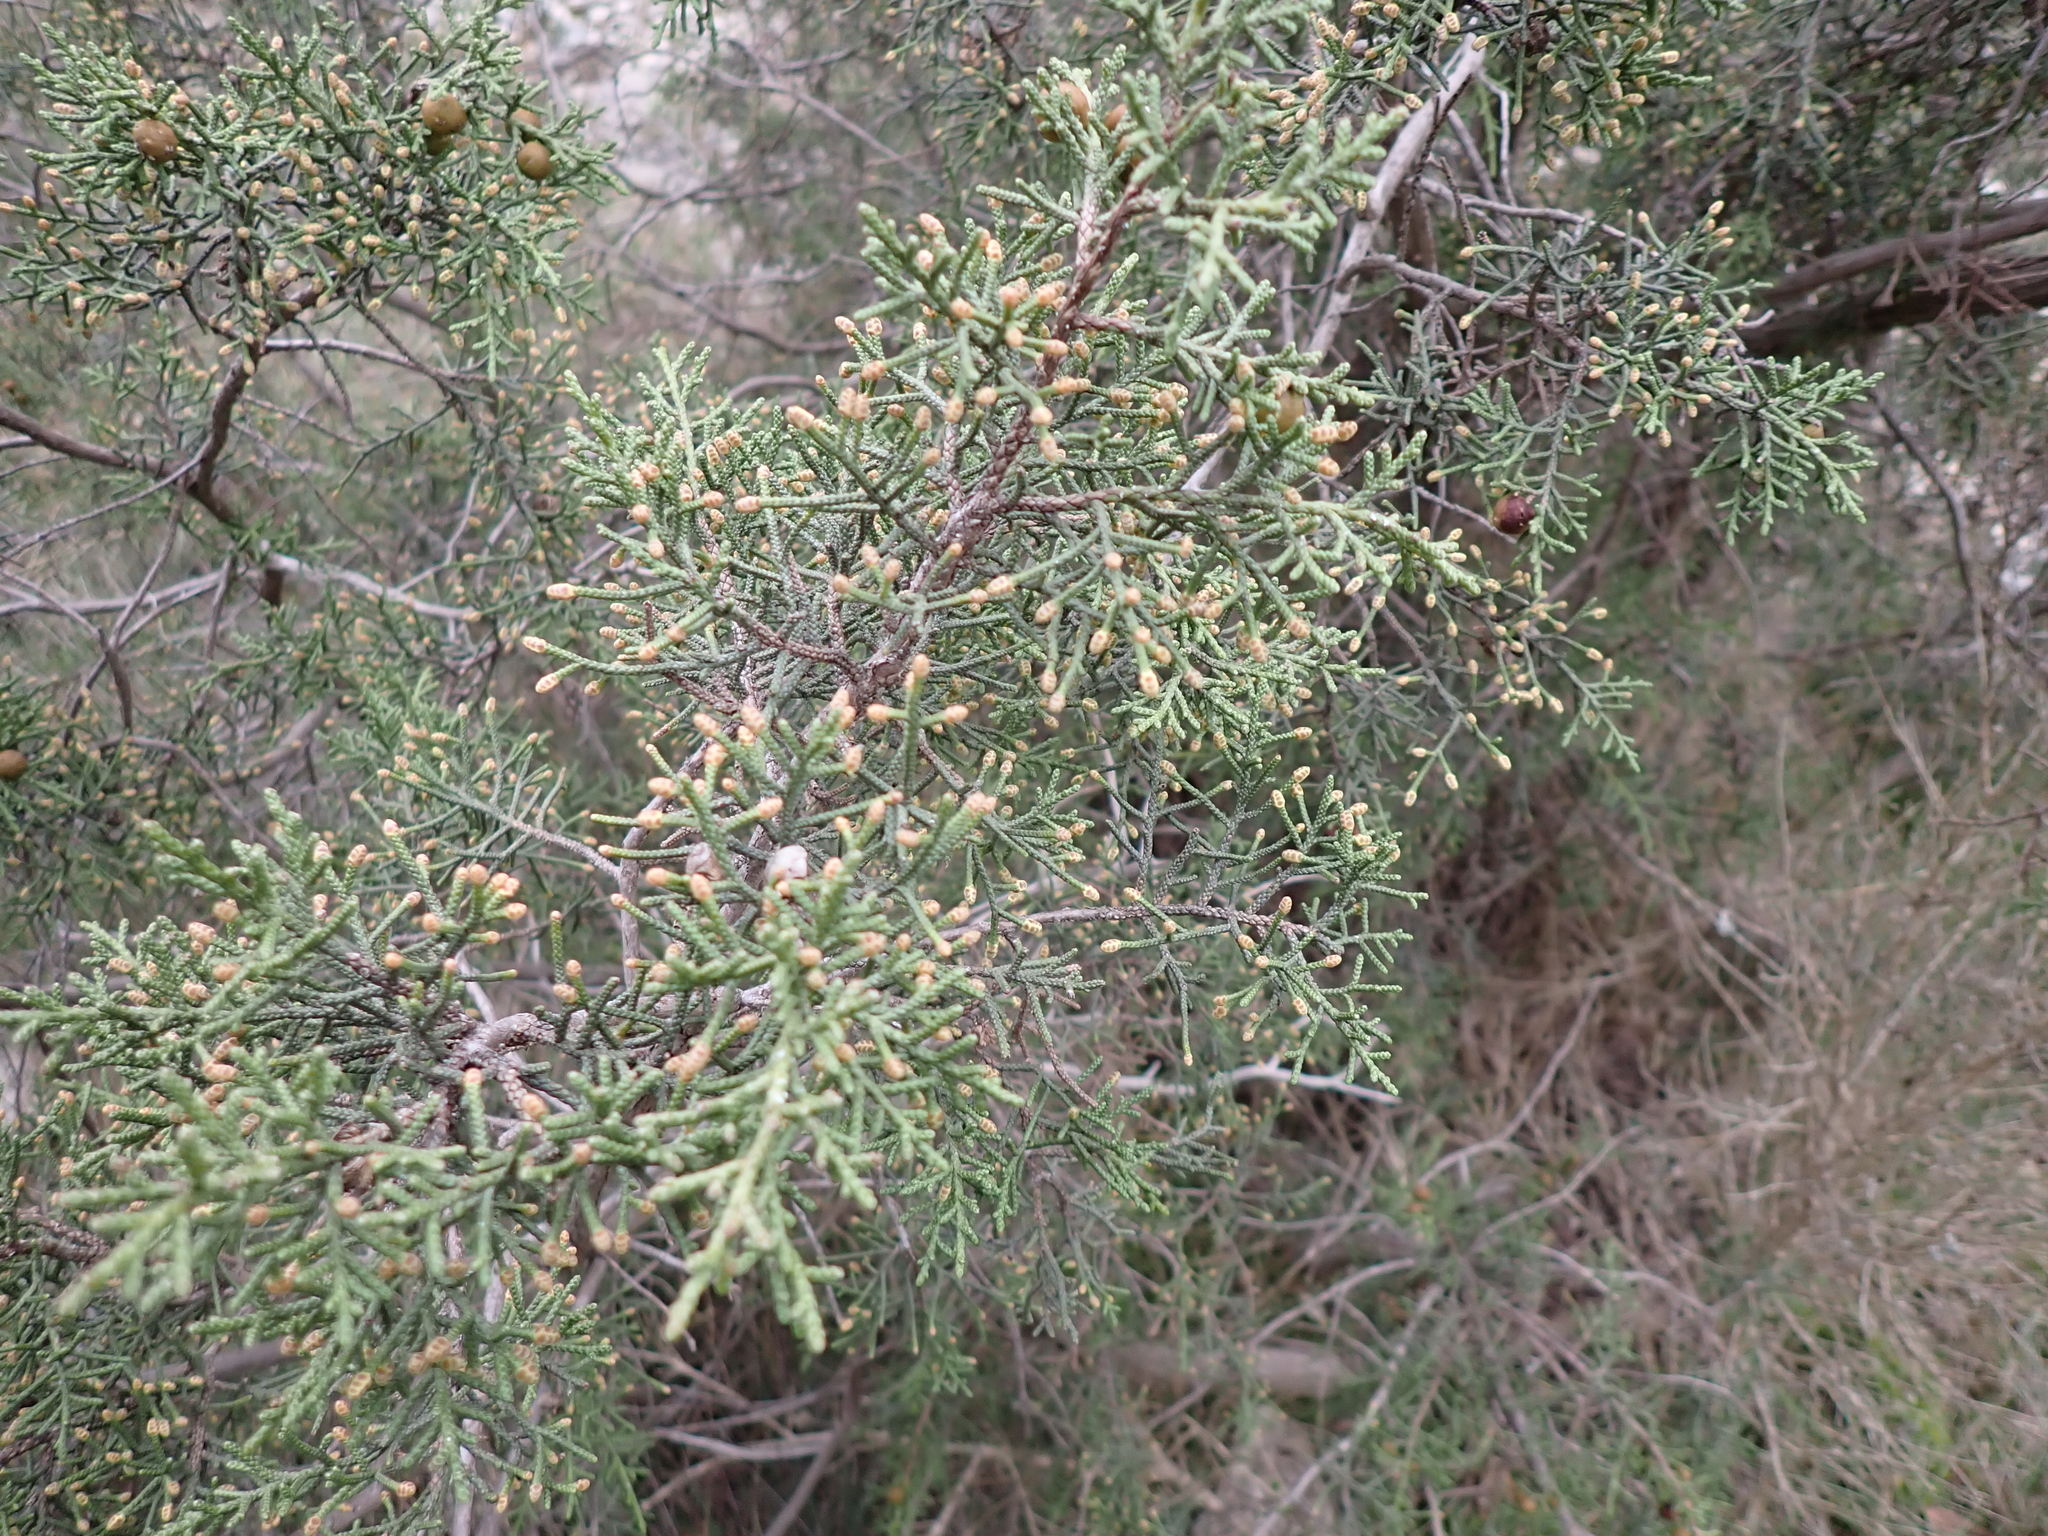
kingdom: Plantae
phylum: Tracheophyta
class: Pinopsida
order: Pinales
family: Cupressaceae
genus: Juniperus
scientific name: Juniperus phoenicea
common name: Phoenician juniper
